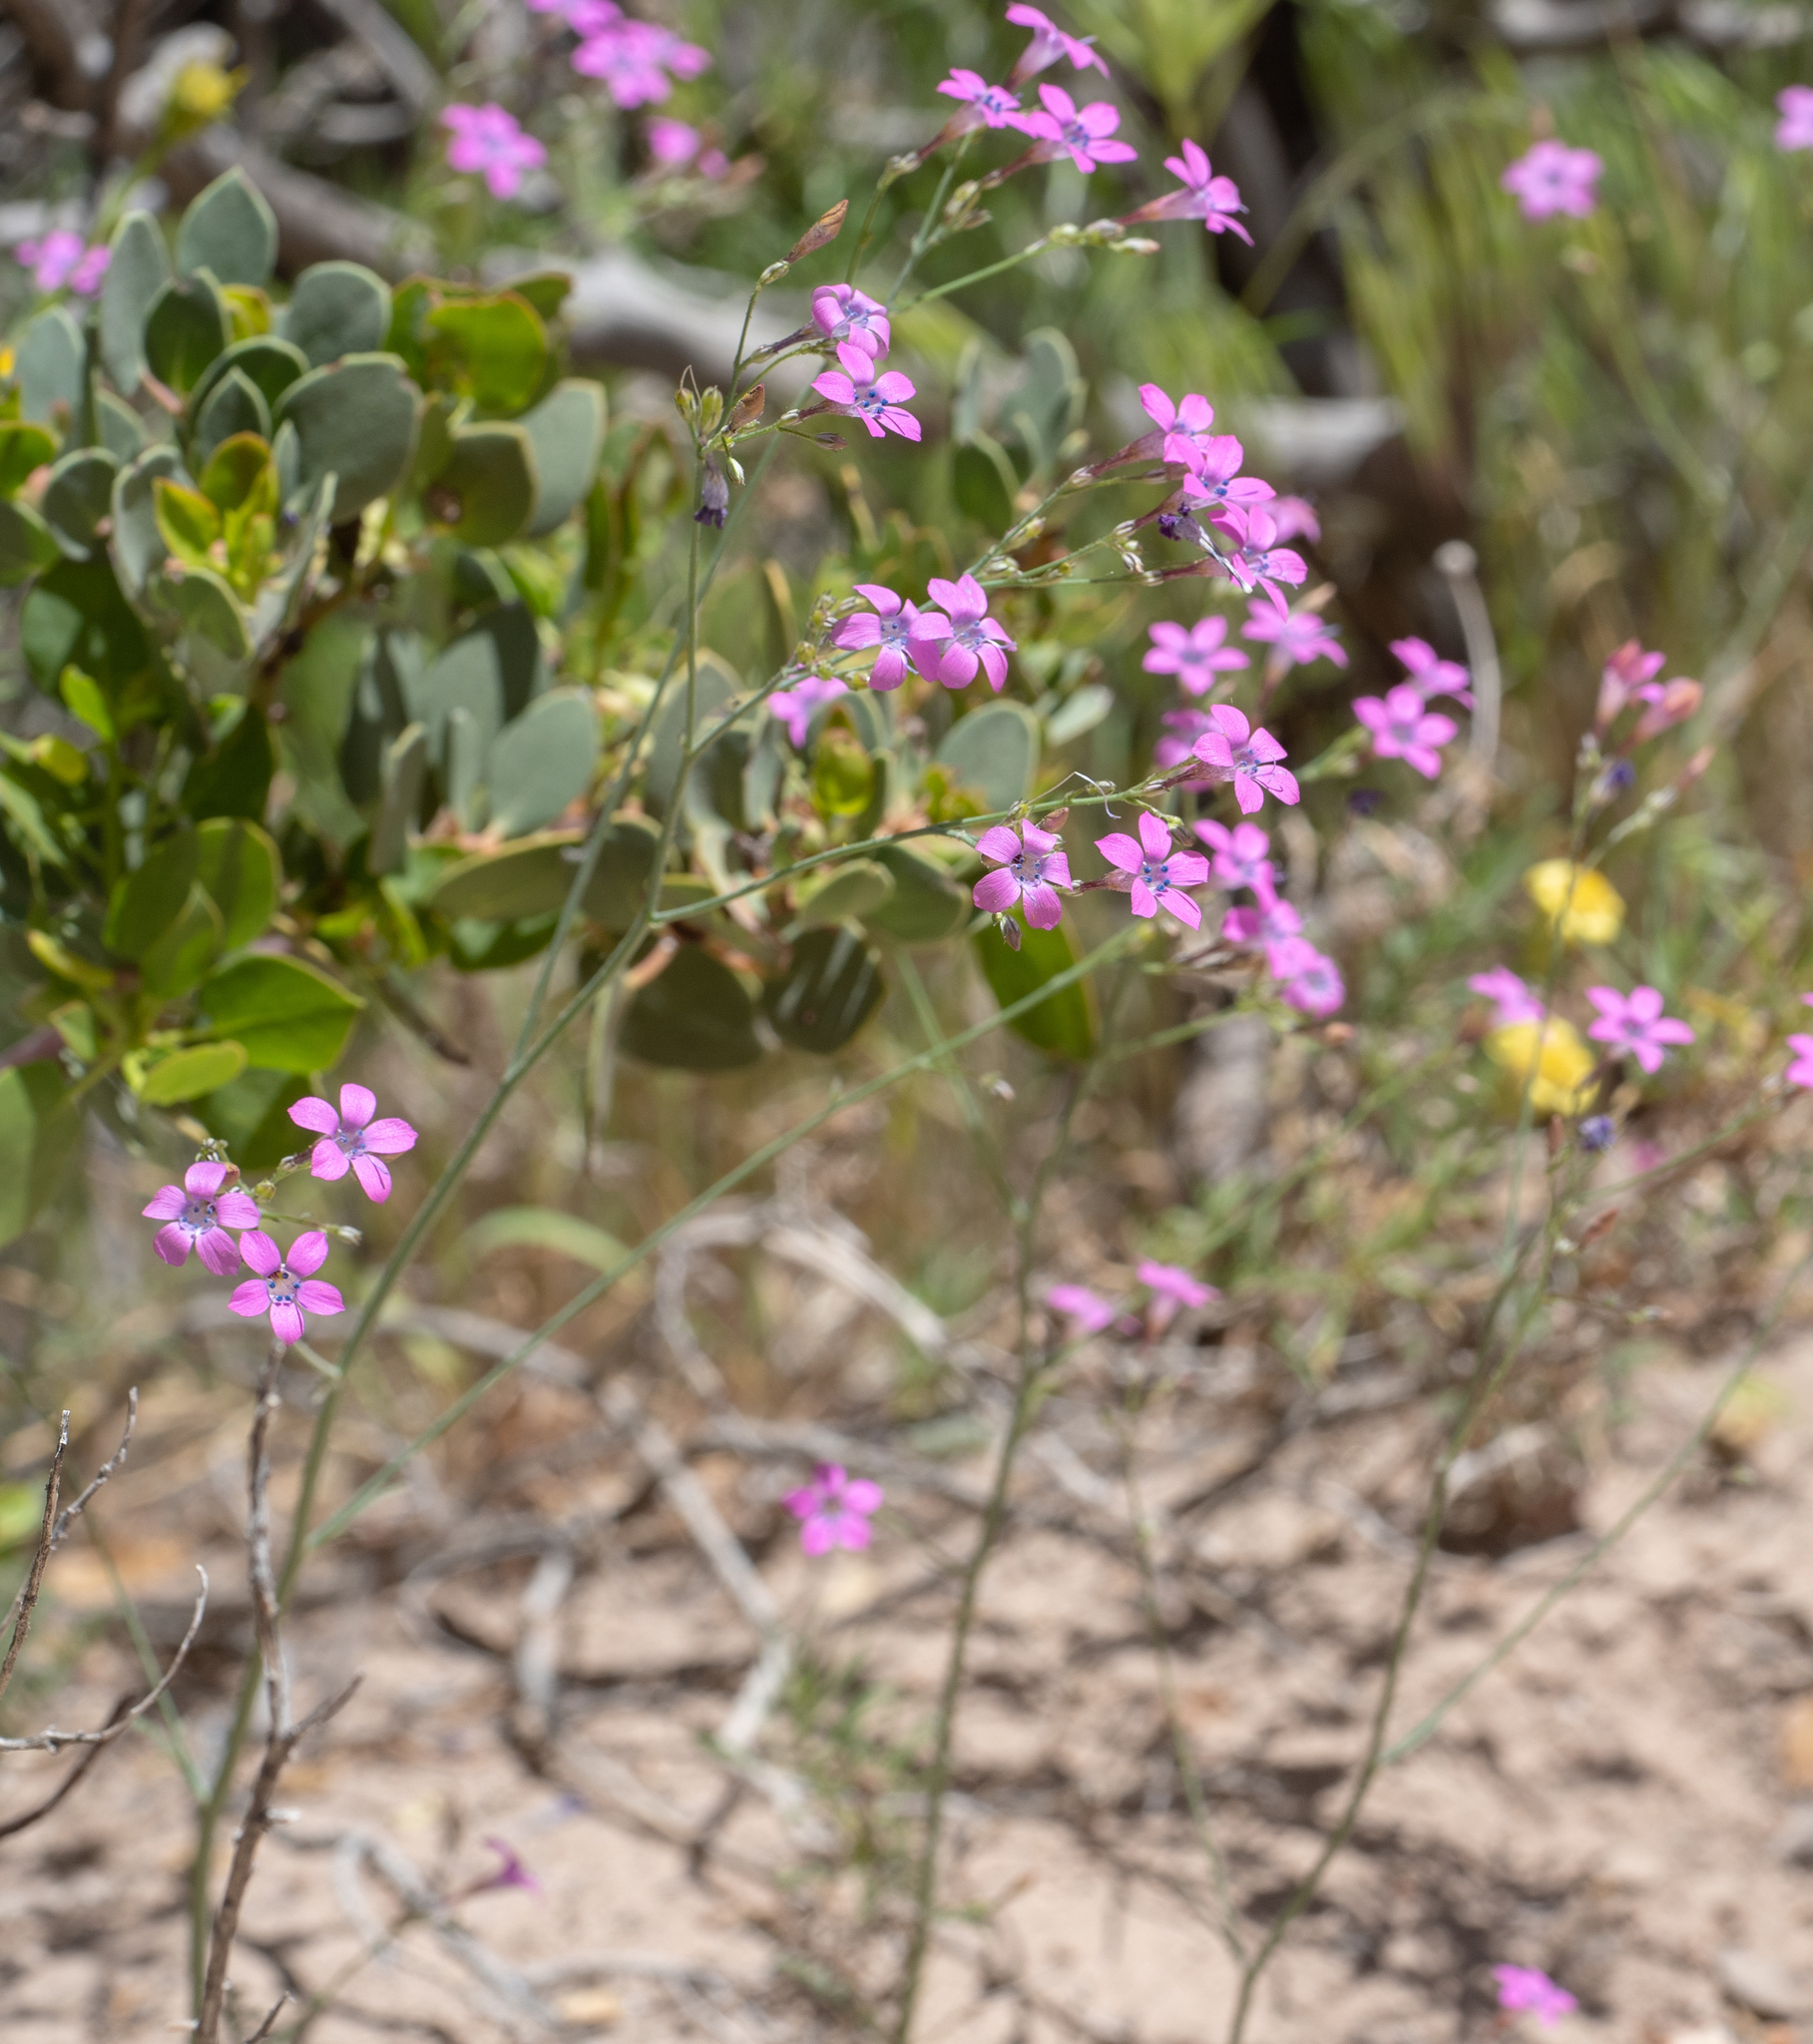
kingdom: Plantae
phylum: Tracheophyta
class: Magnoliopsida
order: Ericales
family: Polemoniaceae
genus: Saltugilia
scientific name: Saltugilia splendens
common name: Grinnell's gilia
